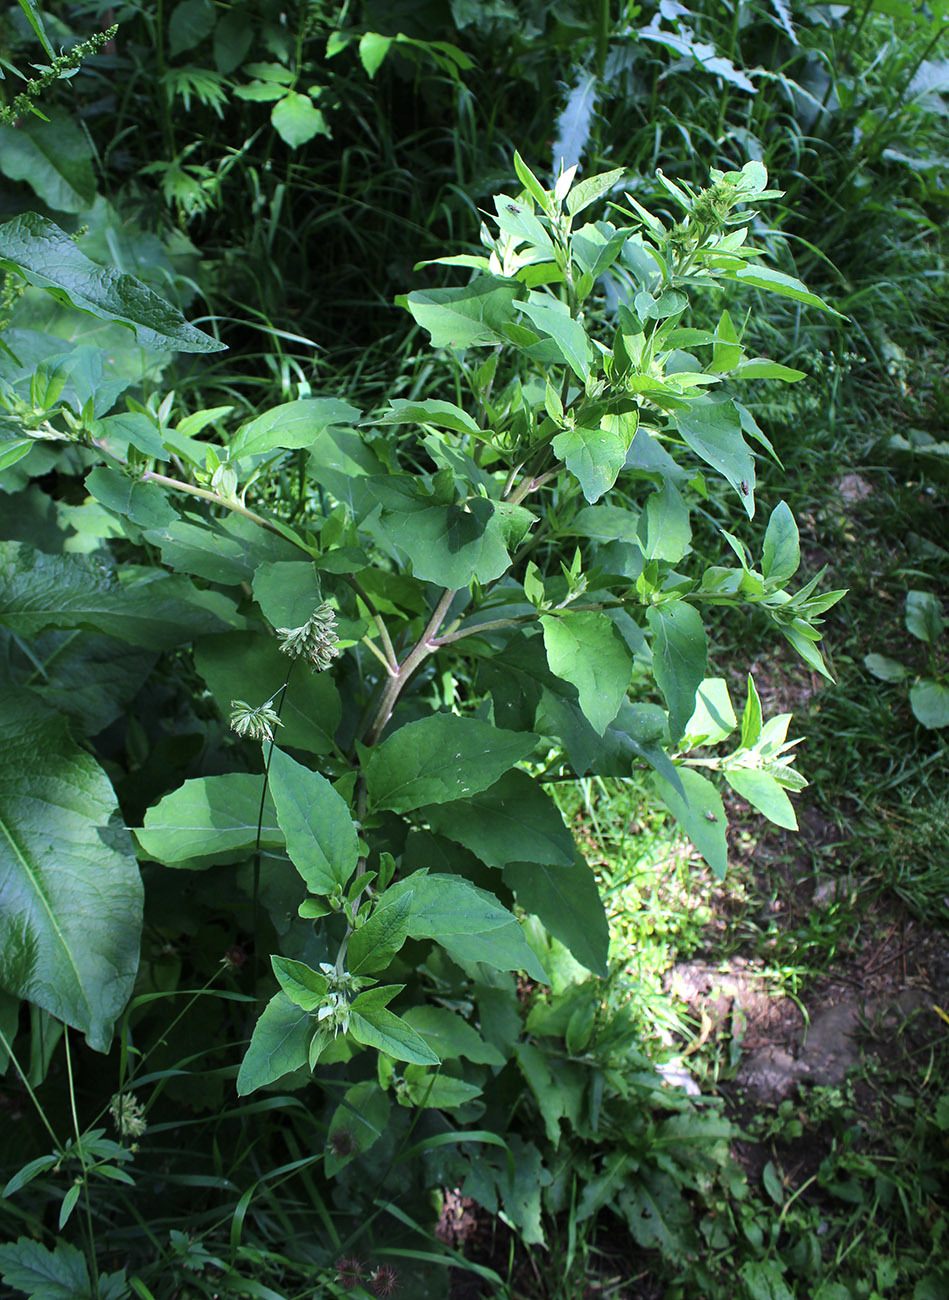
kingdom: Plantae
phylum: Tracheophyta
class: Magnoliopsida
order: Asterales
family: Asteraceae
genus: Arctium
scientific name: Arctium minus
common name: Lesser burdock
